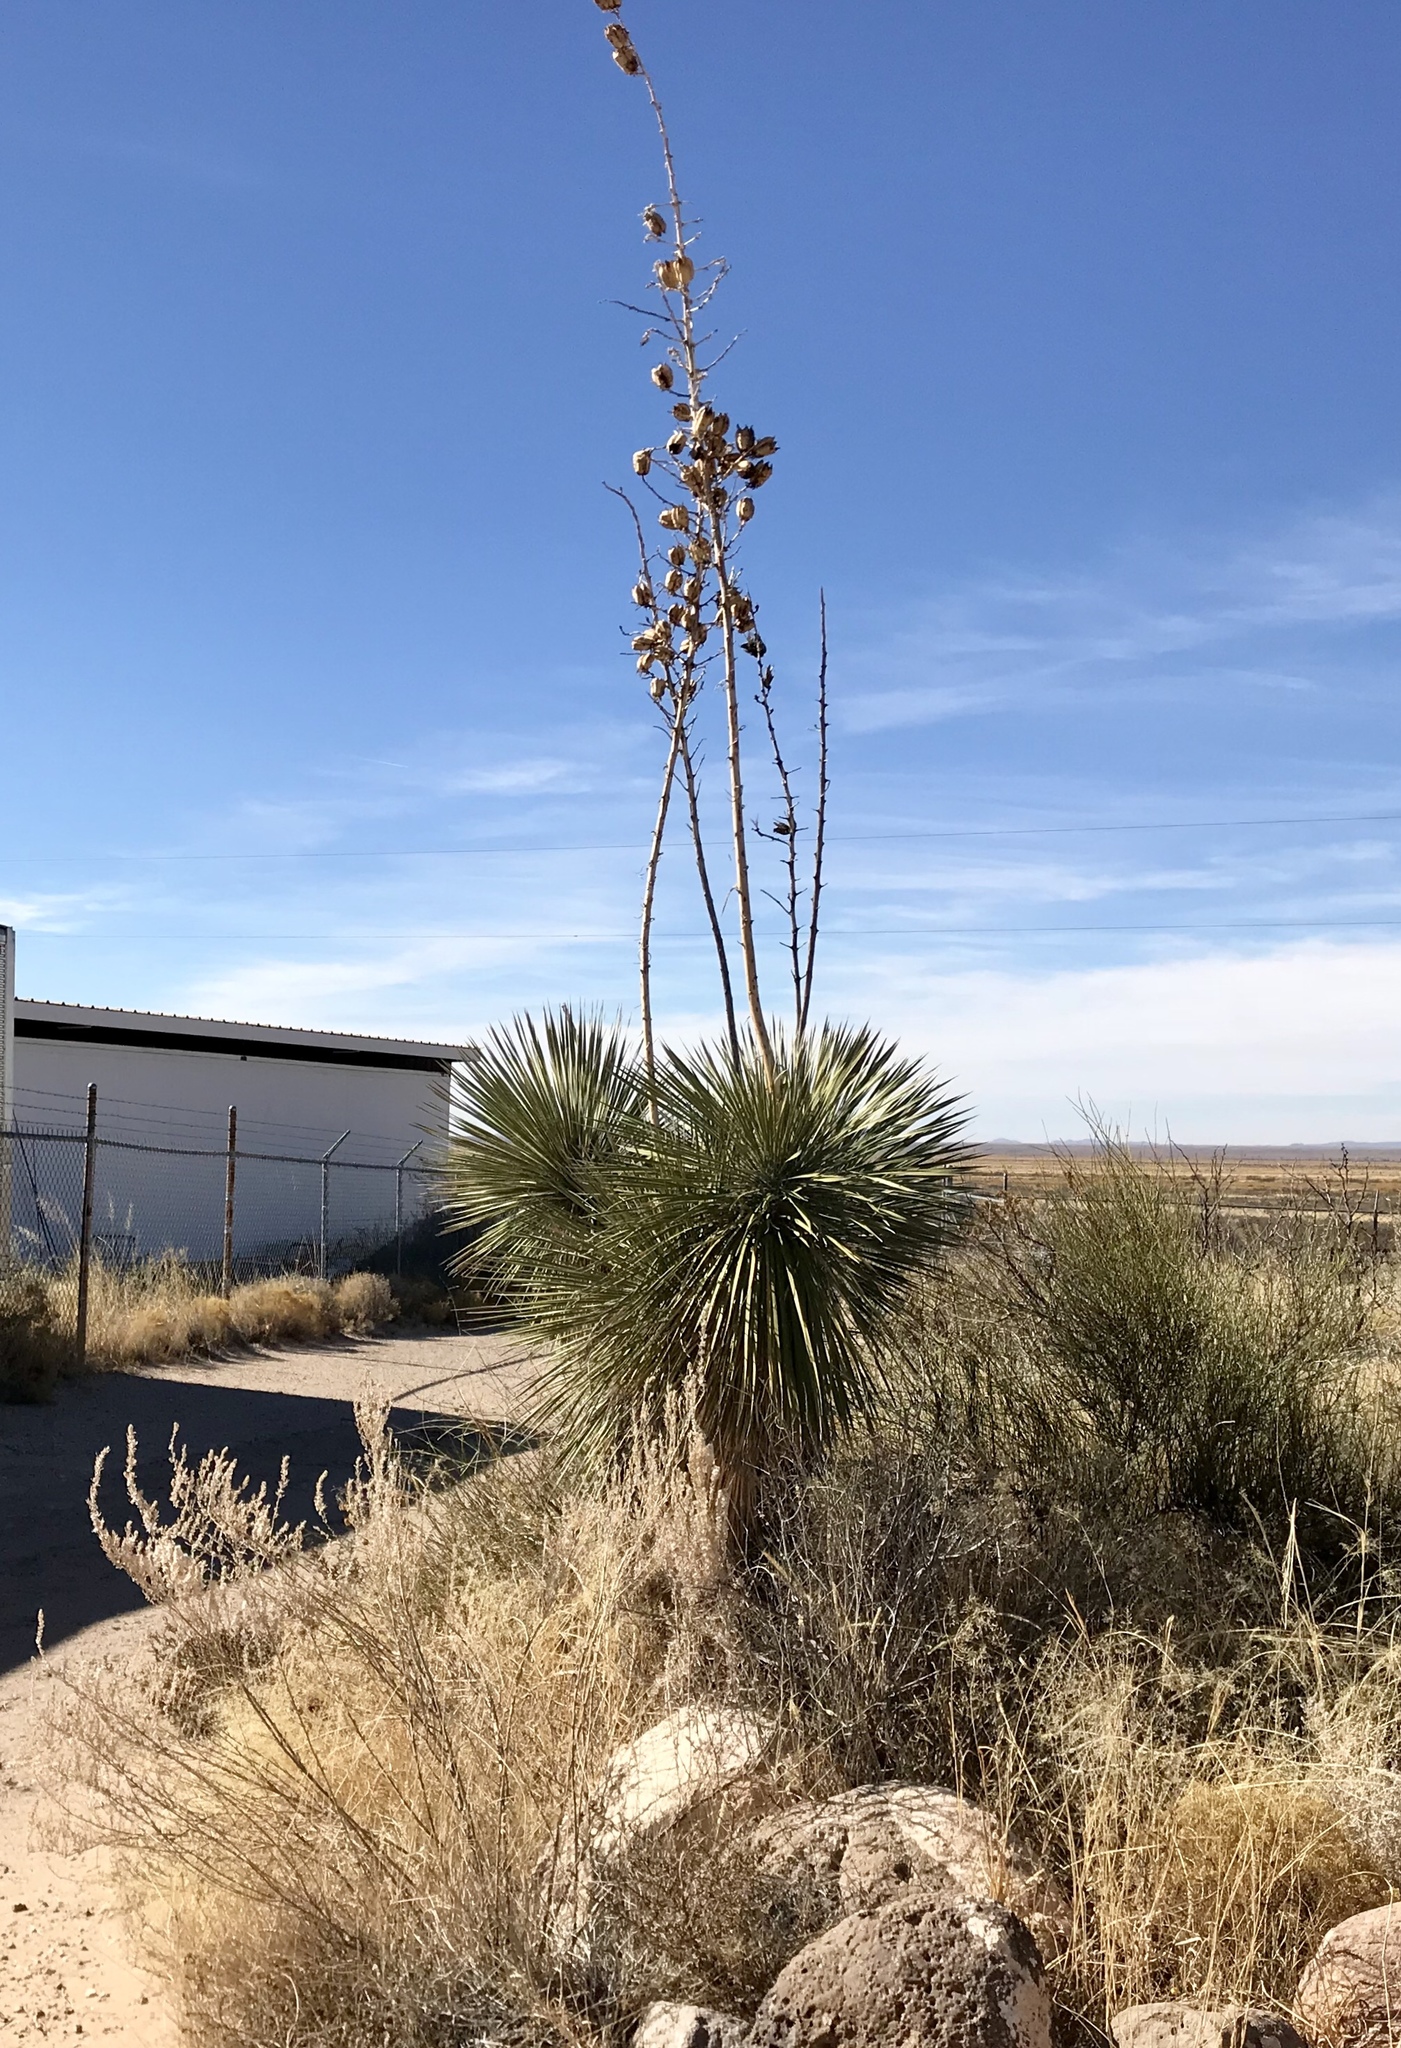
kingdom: Plantae
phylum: Tracheophyta
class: Liliopsida
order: Asparagales
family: Asparagaceae
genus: Yucca
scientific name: Yucca elata
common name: Palmella
